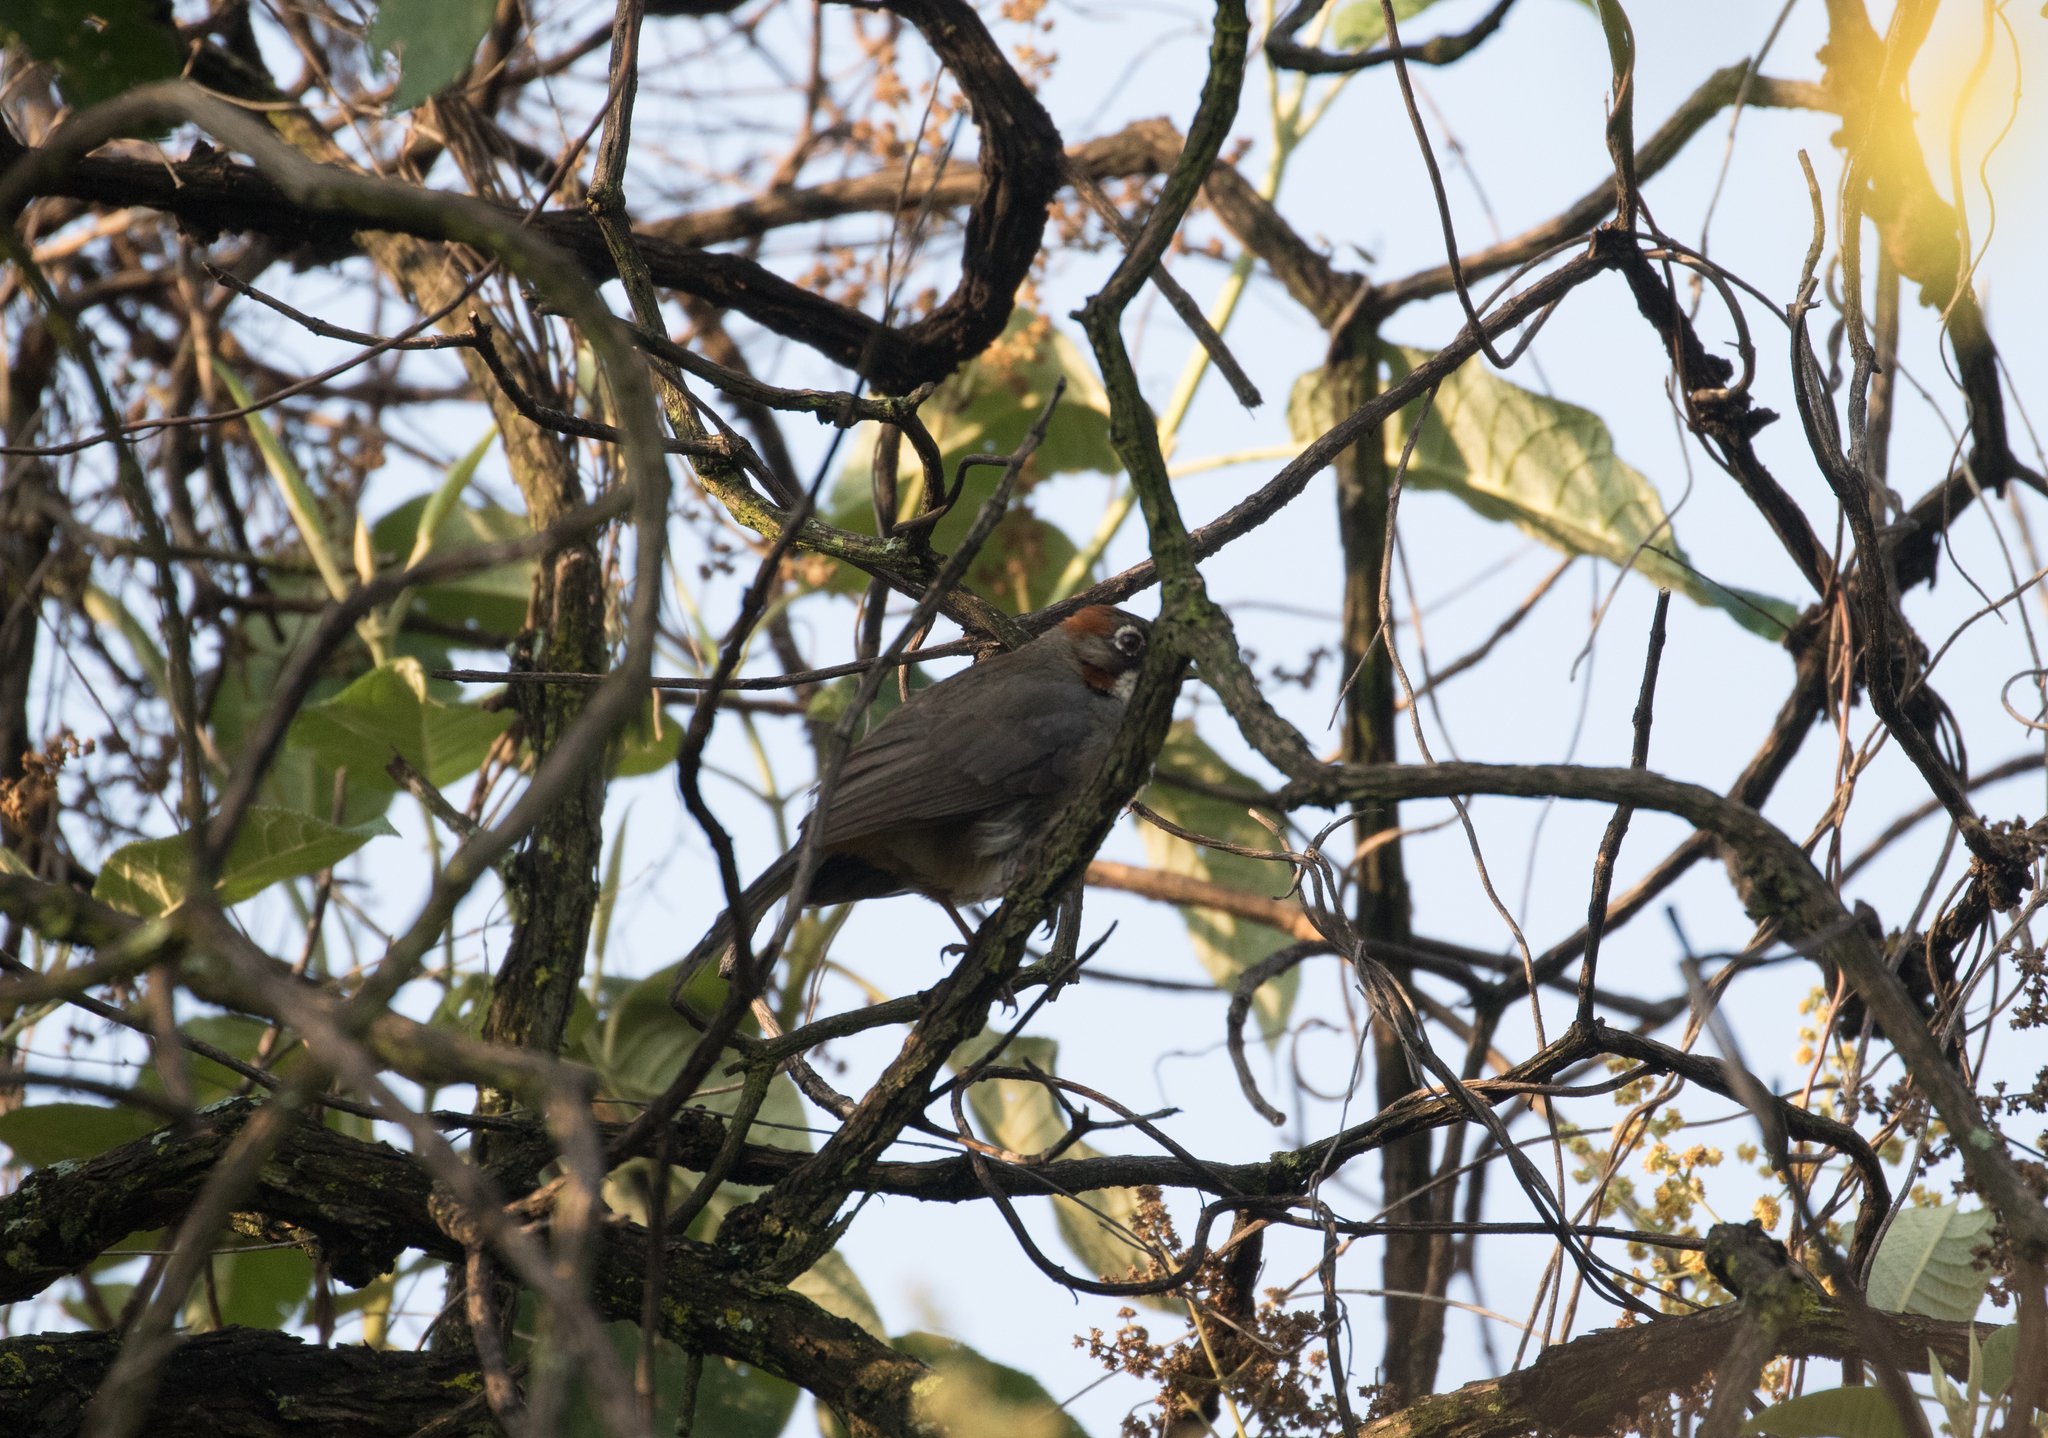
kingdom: Animalia
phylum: Chordata
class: Aves
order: Passeriformes
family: Passerellidae
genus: Melozone
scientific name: Melozone kieneri
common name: Rusty-crowned ground-sparrow
